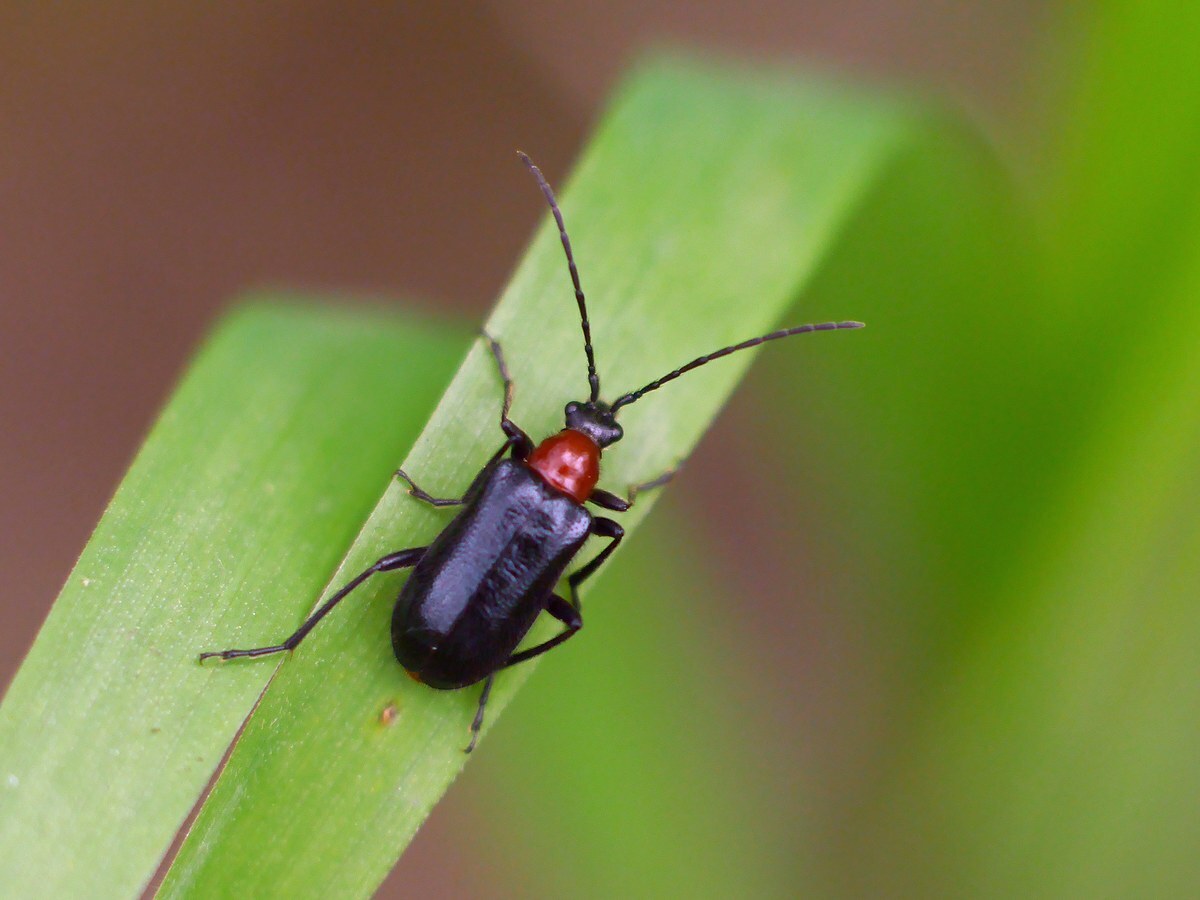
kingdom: Animalia
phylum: Arthropoda
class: Insecta
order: Coleoptera
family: Cerambycidae
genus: Dinoptera
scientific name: Dinoptera collaris
